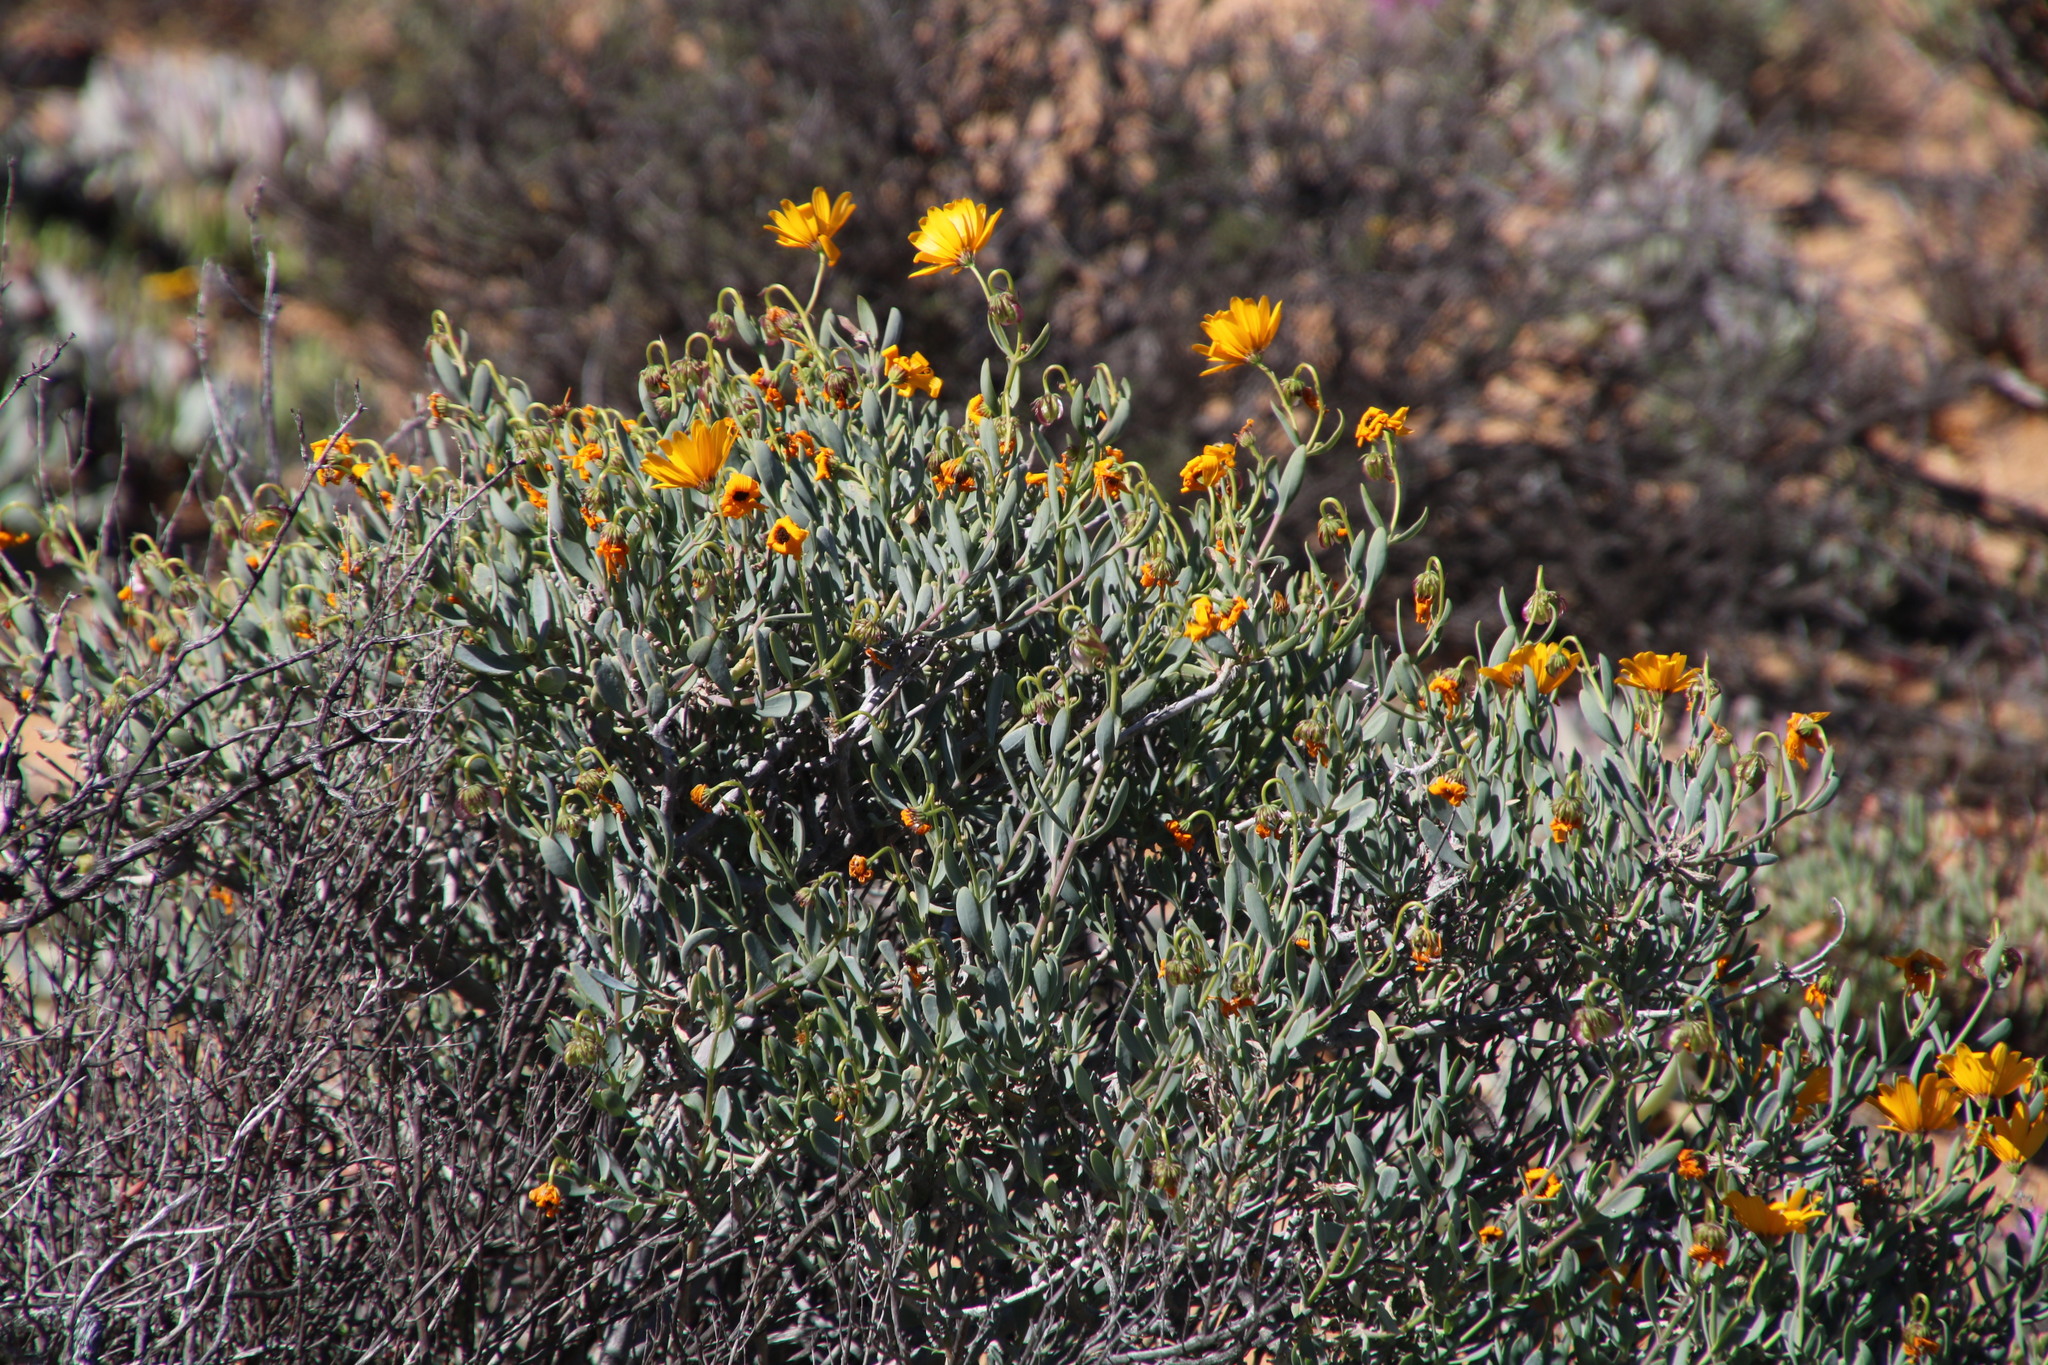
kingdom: Plantae
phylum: Tracheophyta
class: Magnoliopsida
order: Asterales
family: Asteraceae
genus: Osteospermum
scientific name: Osteospermum oppositifolium
